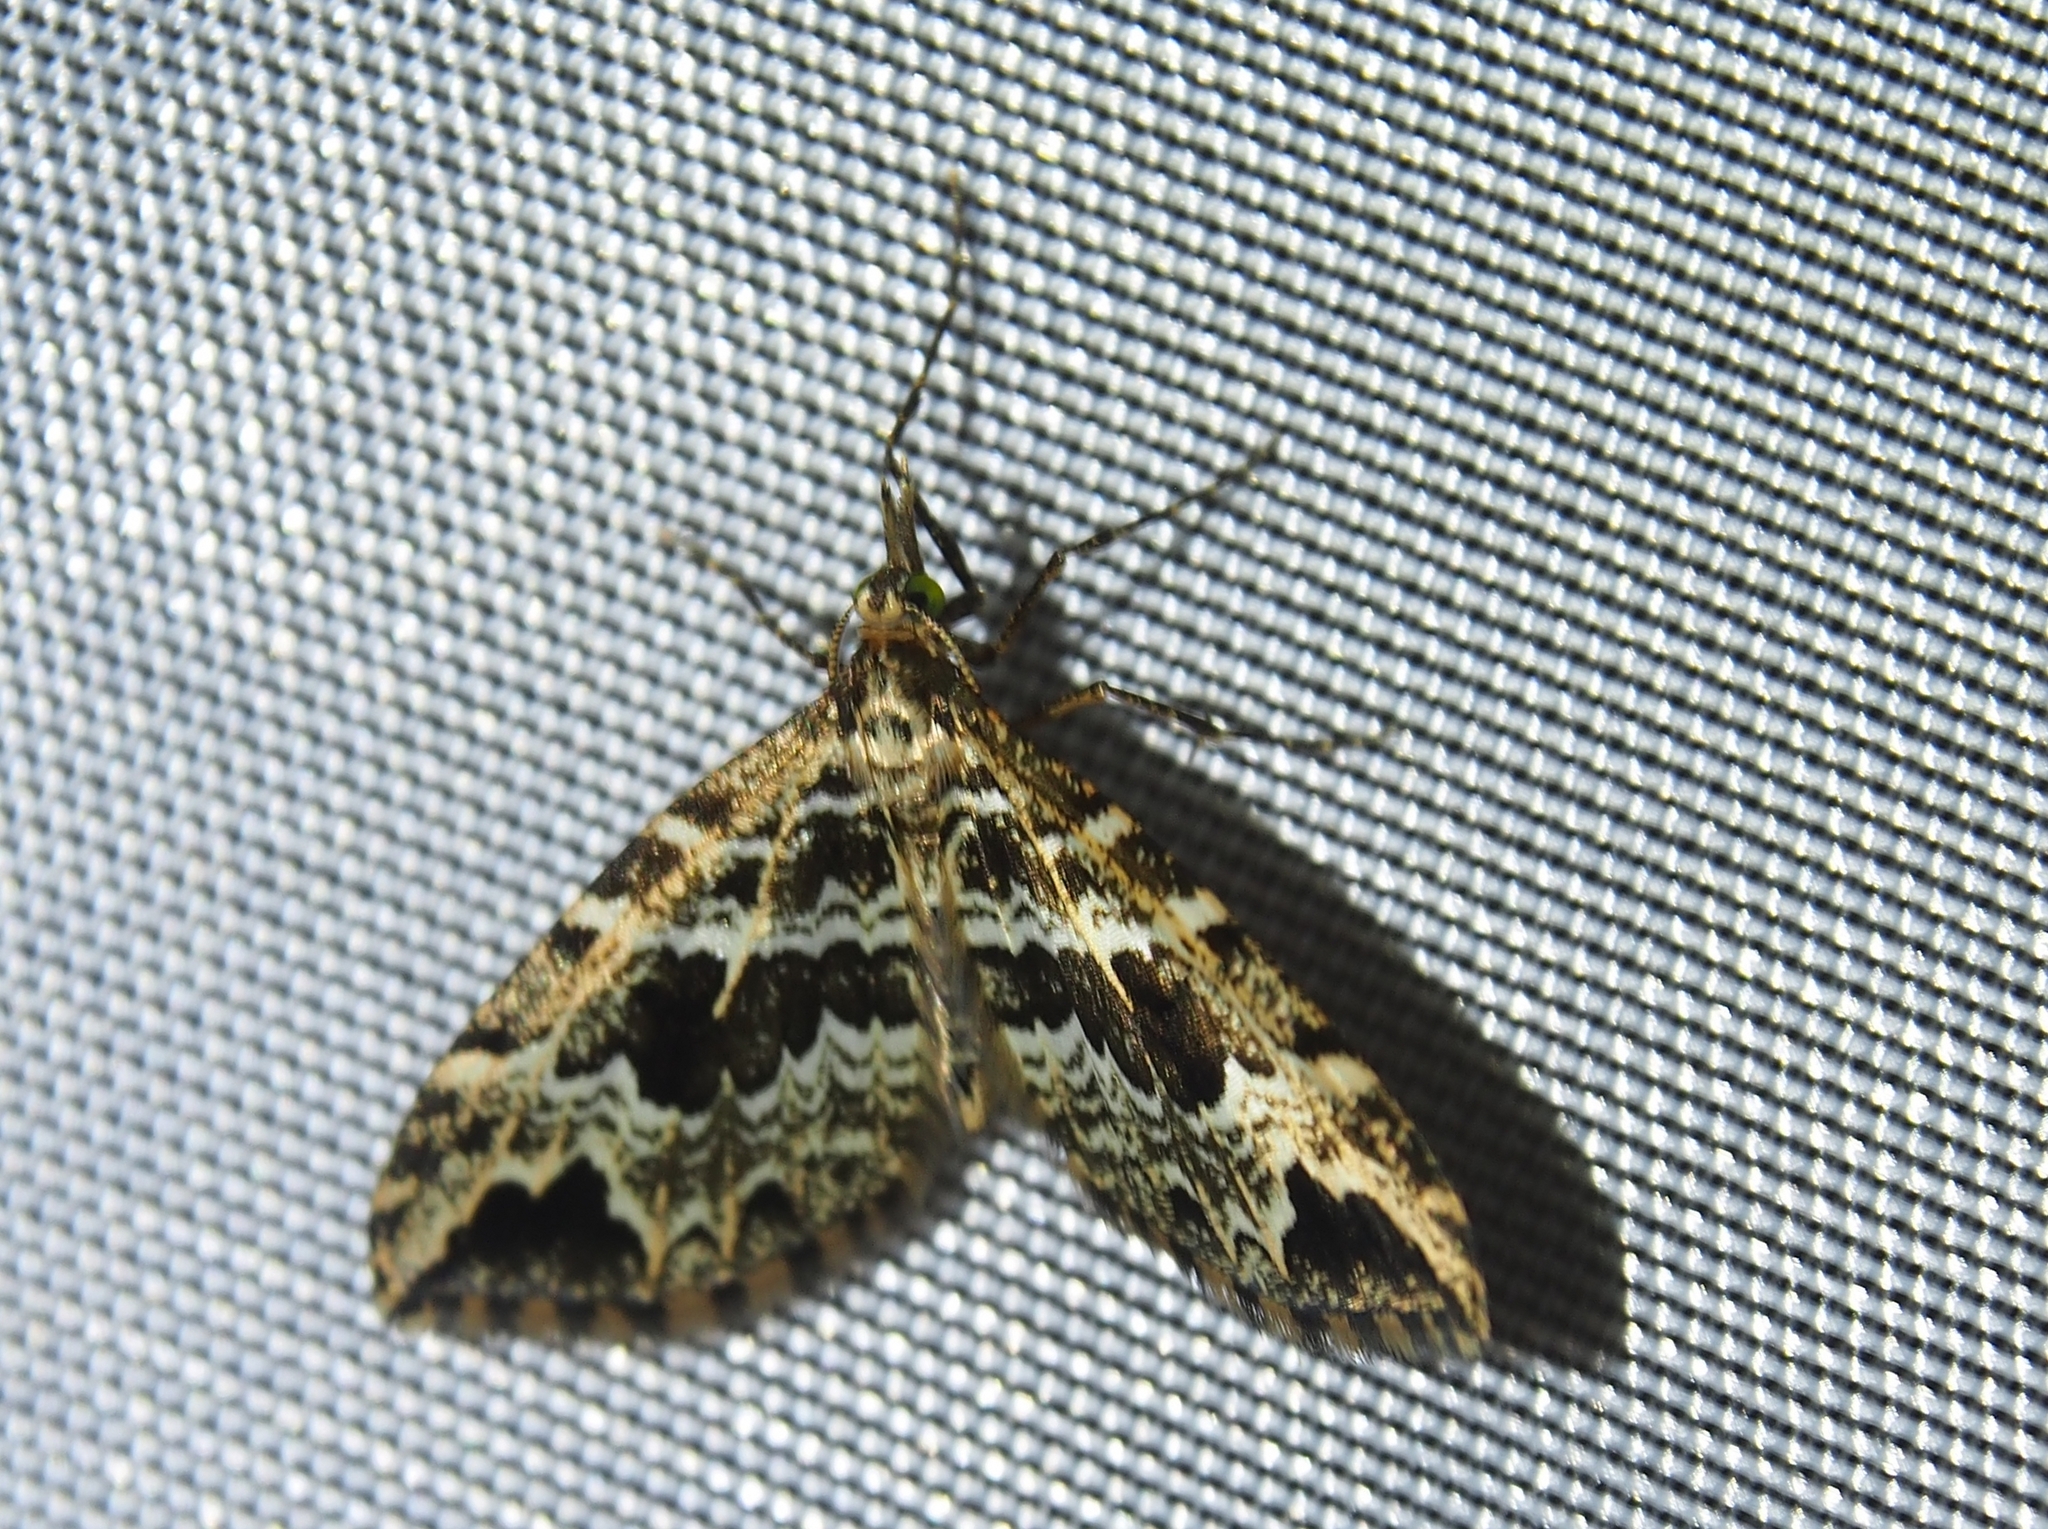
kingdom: Animalia
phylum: Arthropoda
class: Insecta
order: Lepidoptera
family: Geometridae
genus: Psaliodes
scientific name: Psaliodes aurativena
